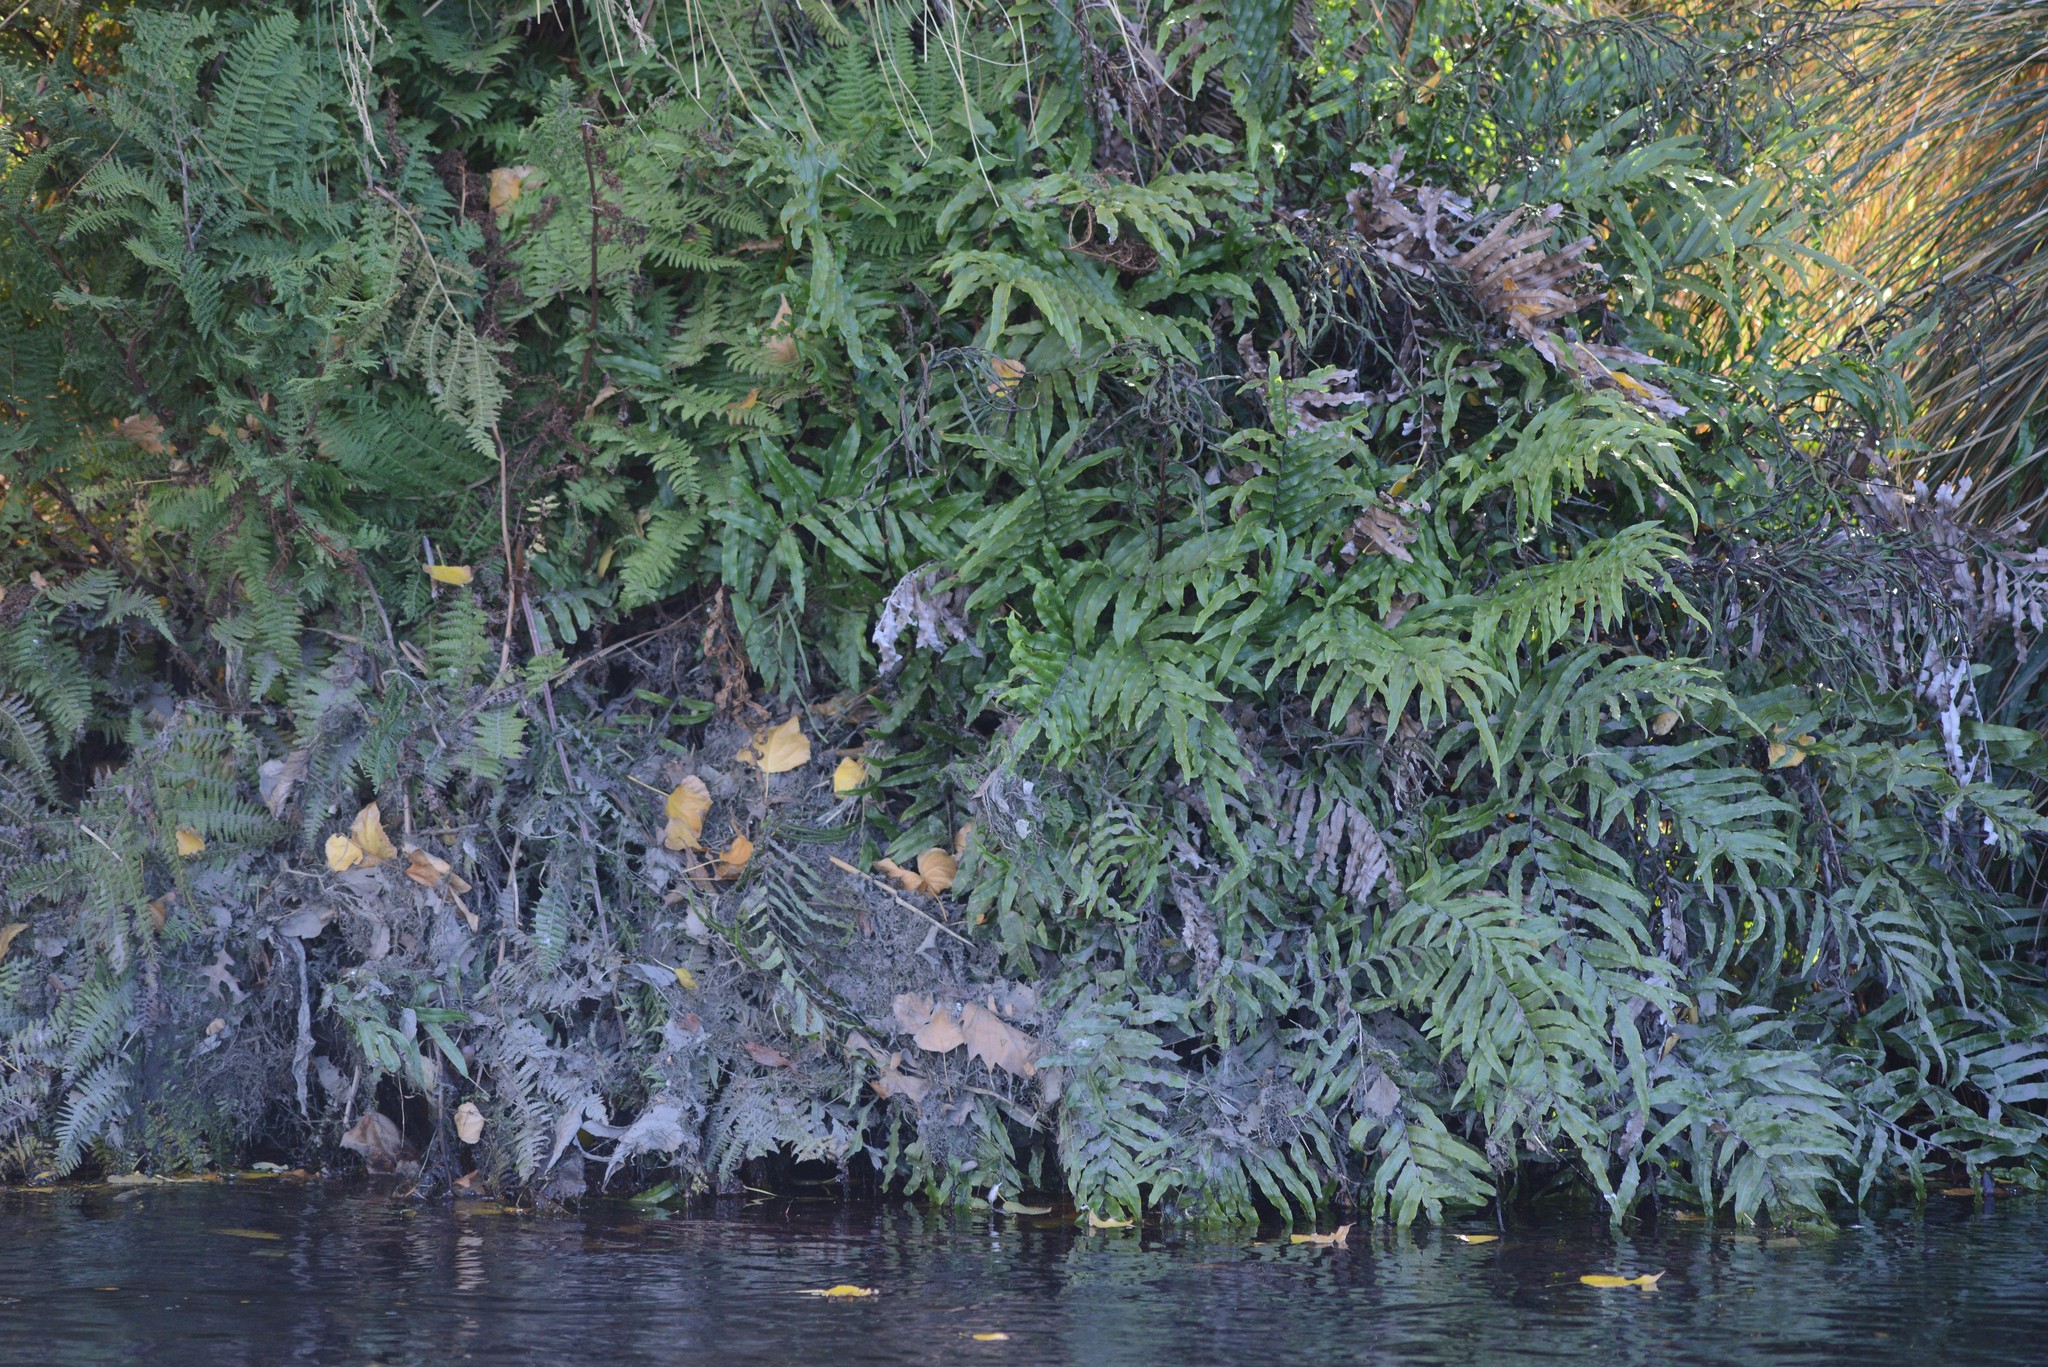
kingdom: Plantae
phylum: Tracheophyta
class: Polypodiopsida
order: Polypodiales
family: Blechnaceae
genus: Blechnum
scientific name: Blechnum
